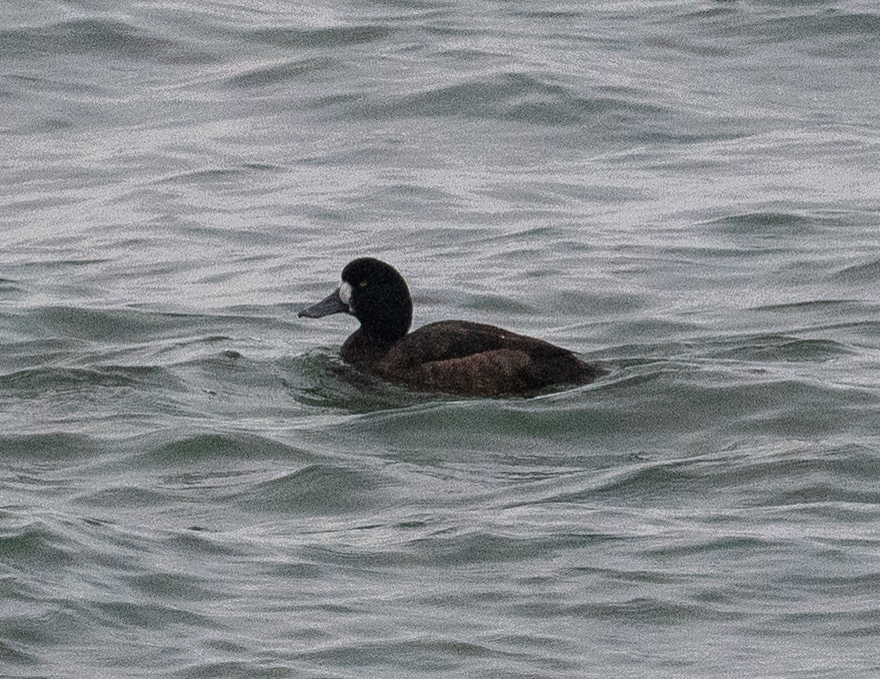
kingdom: Animalia
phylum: Chordata
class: Aves
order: Anseriformes
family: Anatidae
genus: Aythya
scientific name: Aythya marila
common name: Greater scaup
